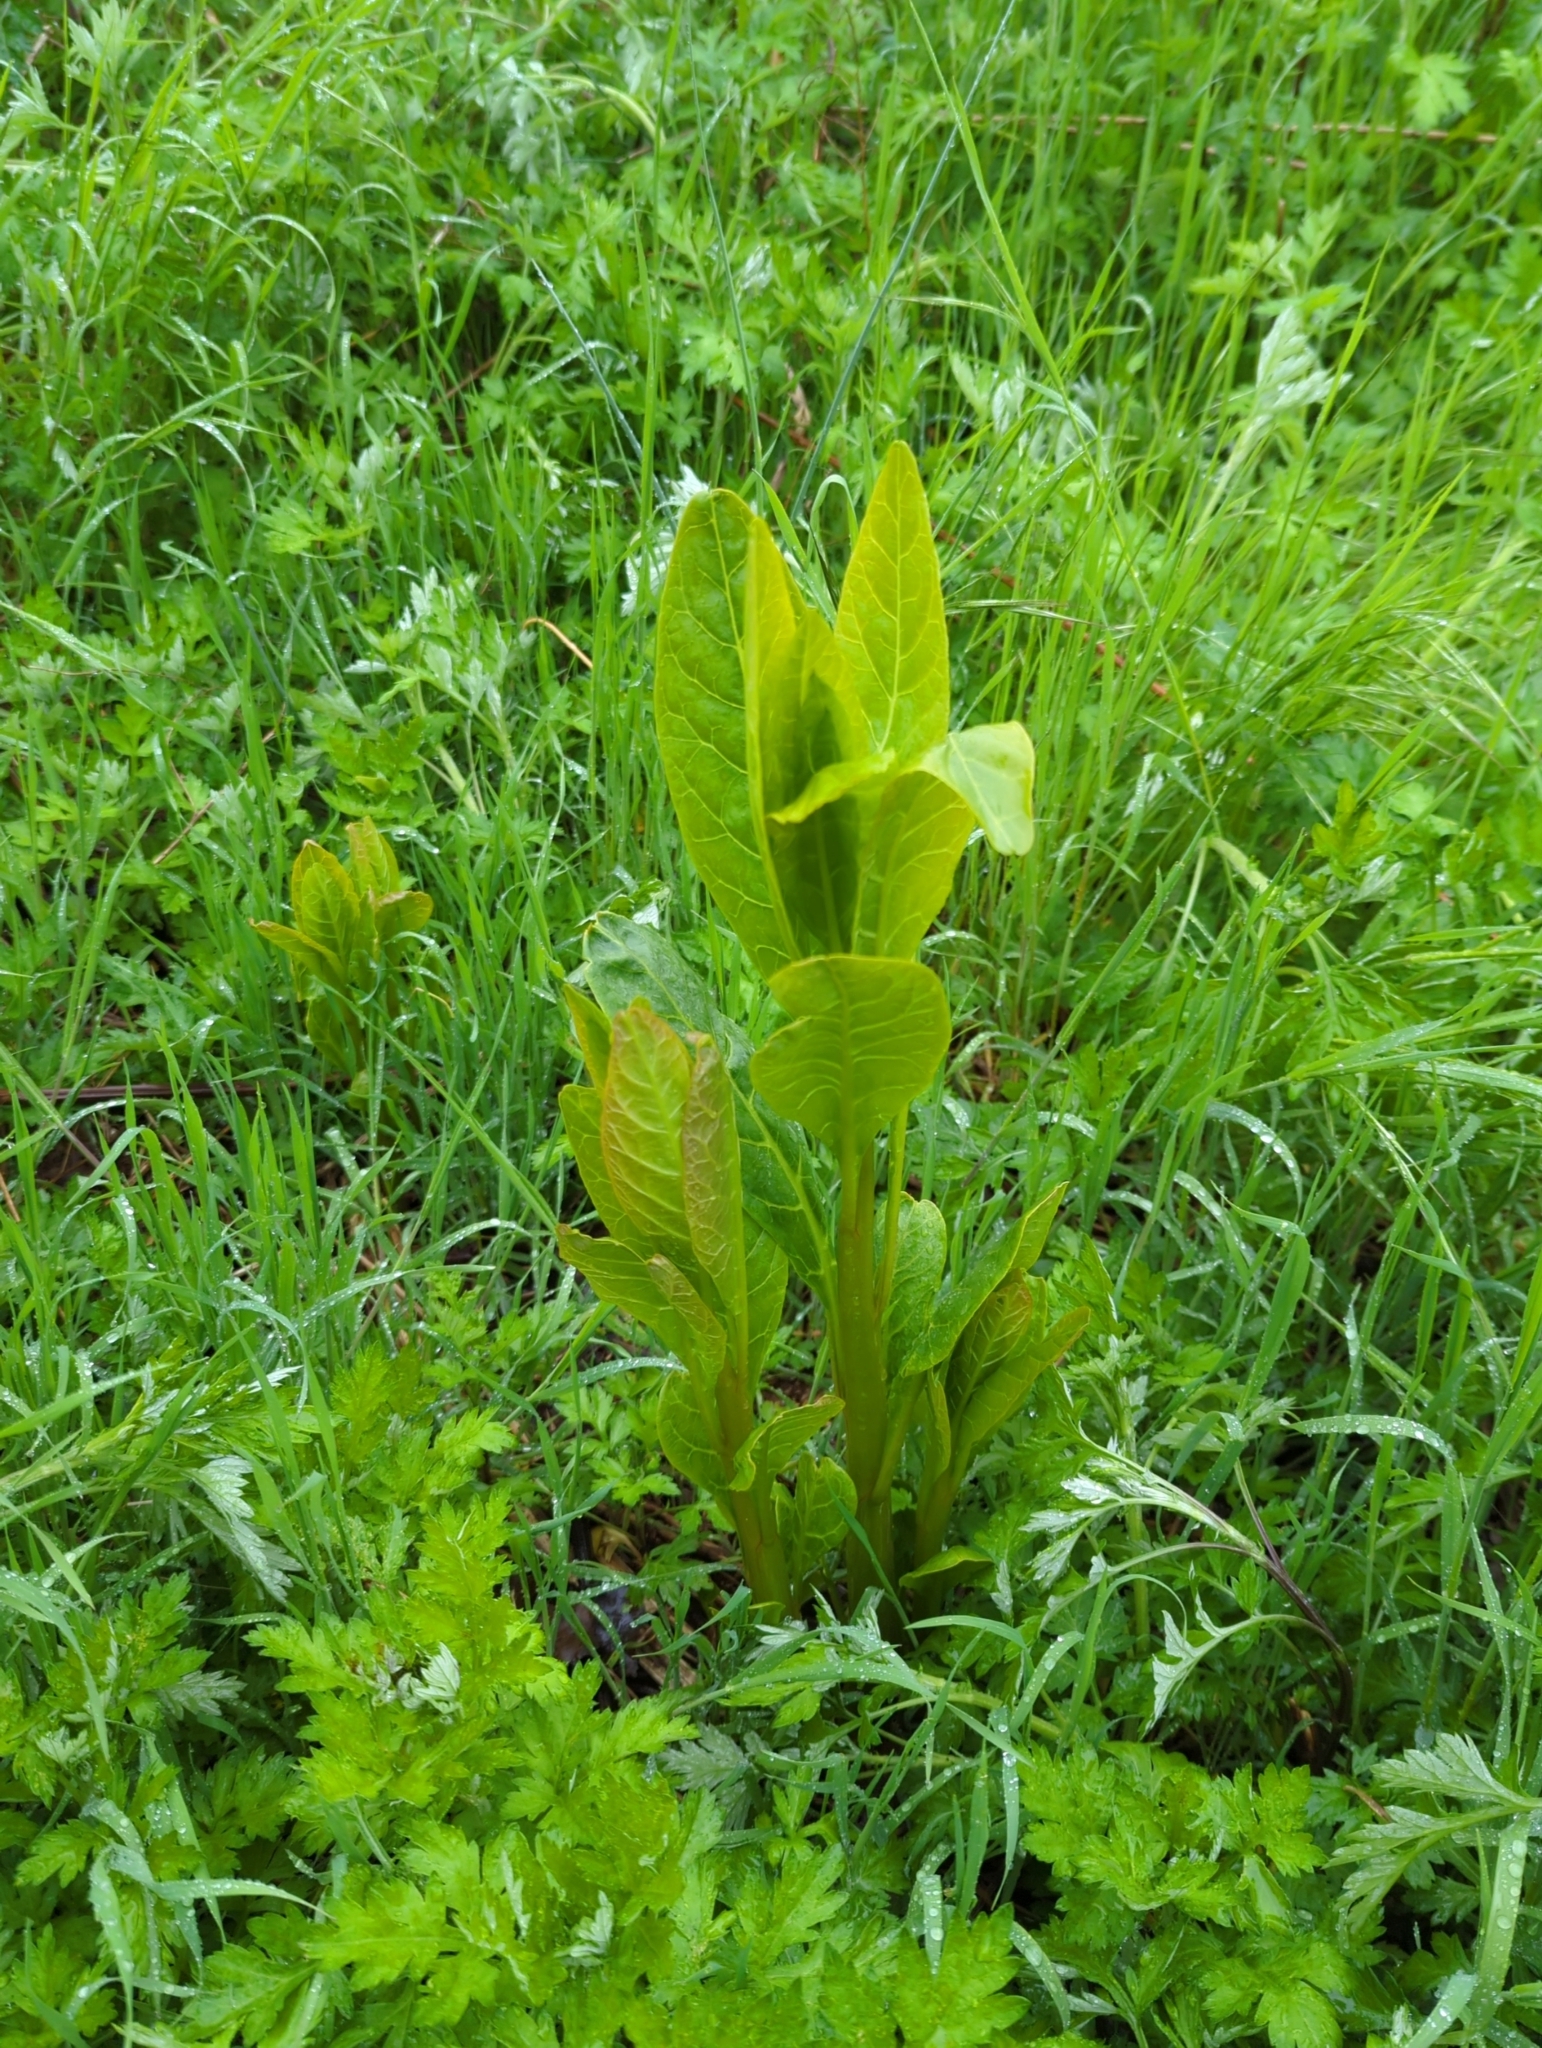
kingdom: Plantae
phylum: Tracheophyta
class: Magnoliopsida
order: Caryophyllales
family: Phytolaccaceae
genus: Phytolacca
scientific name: Phytolacca americana
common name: American pokeweed
